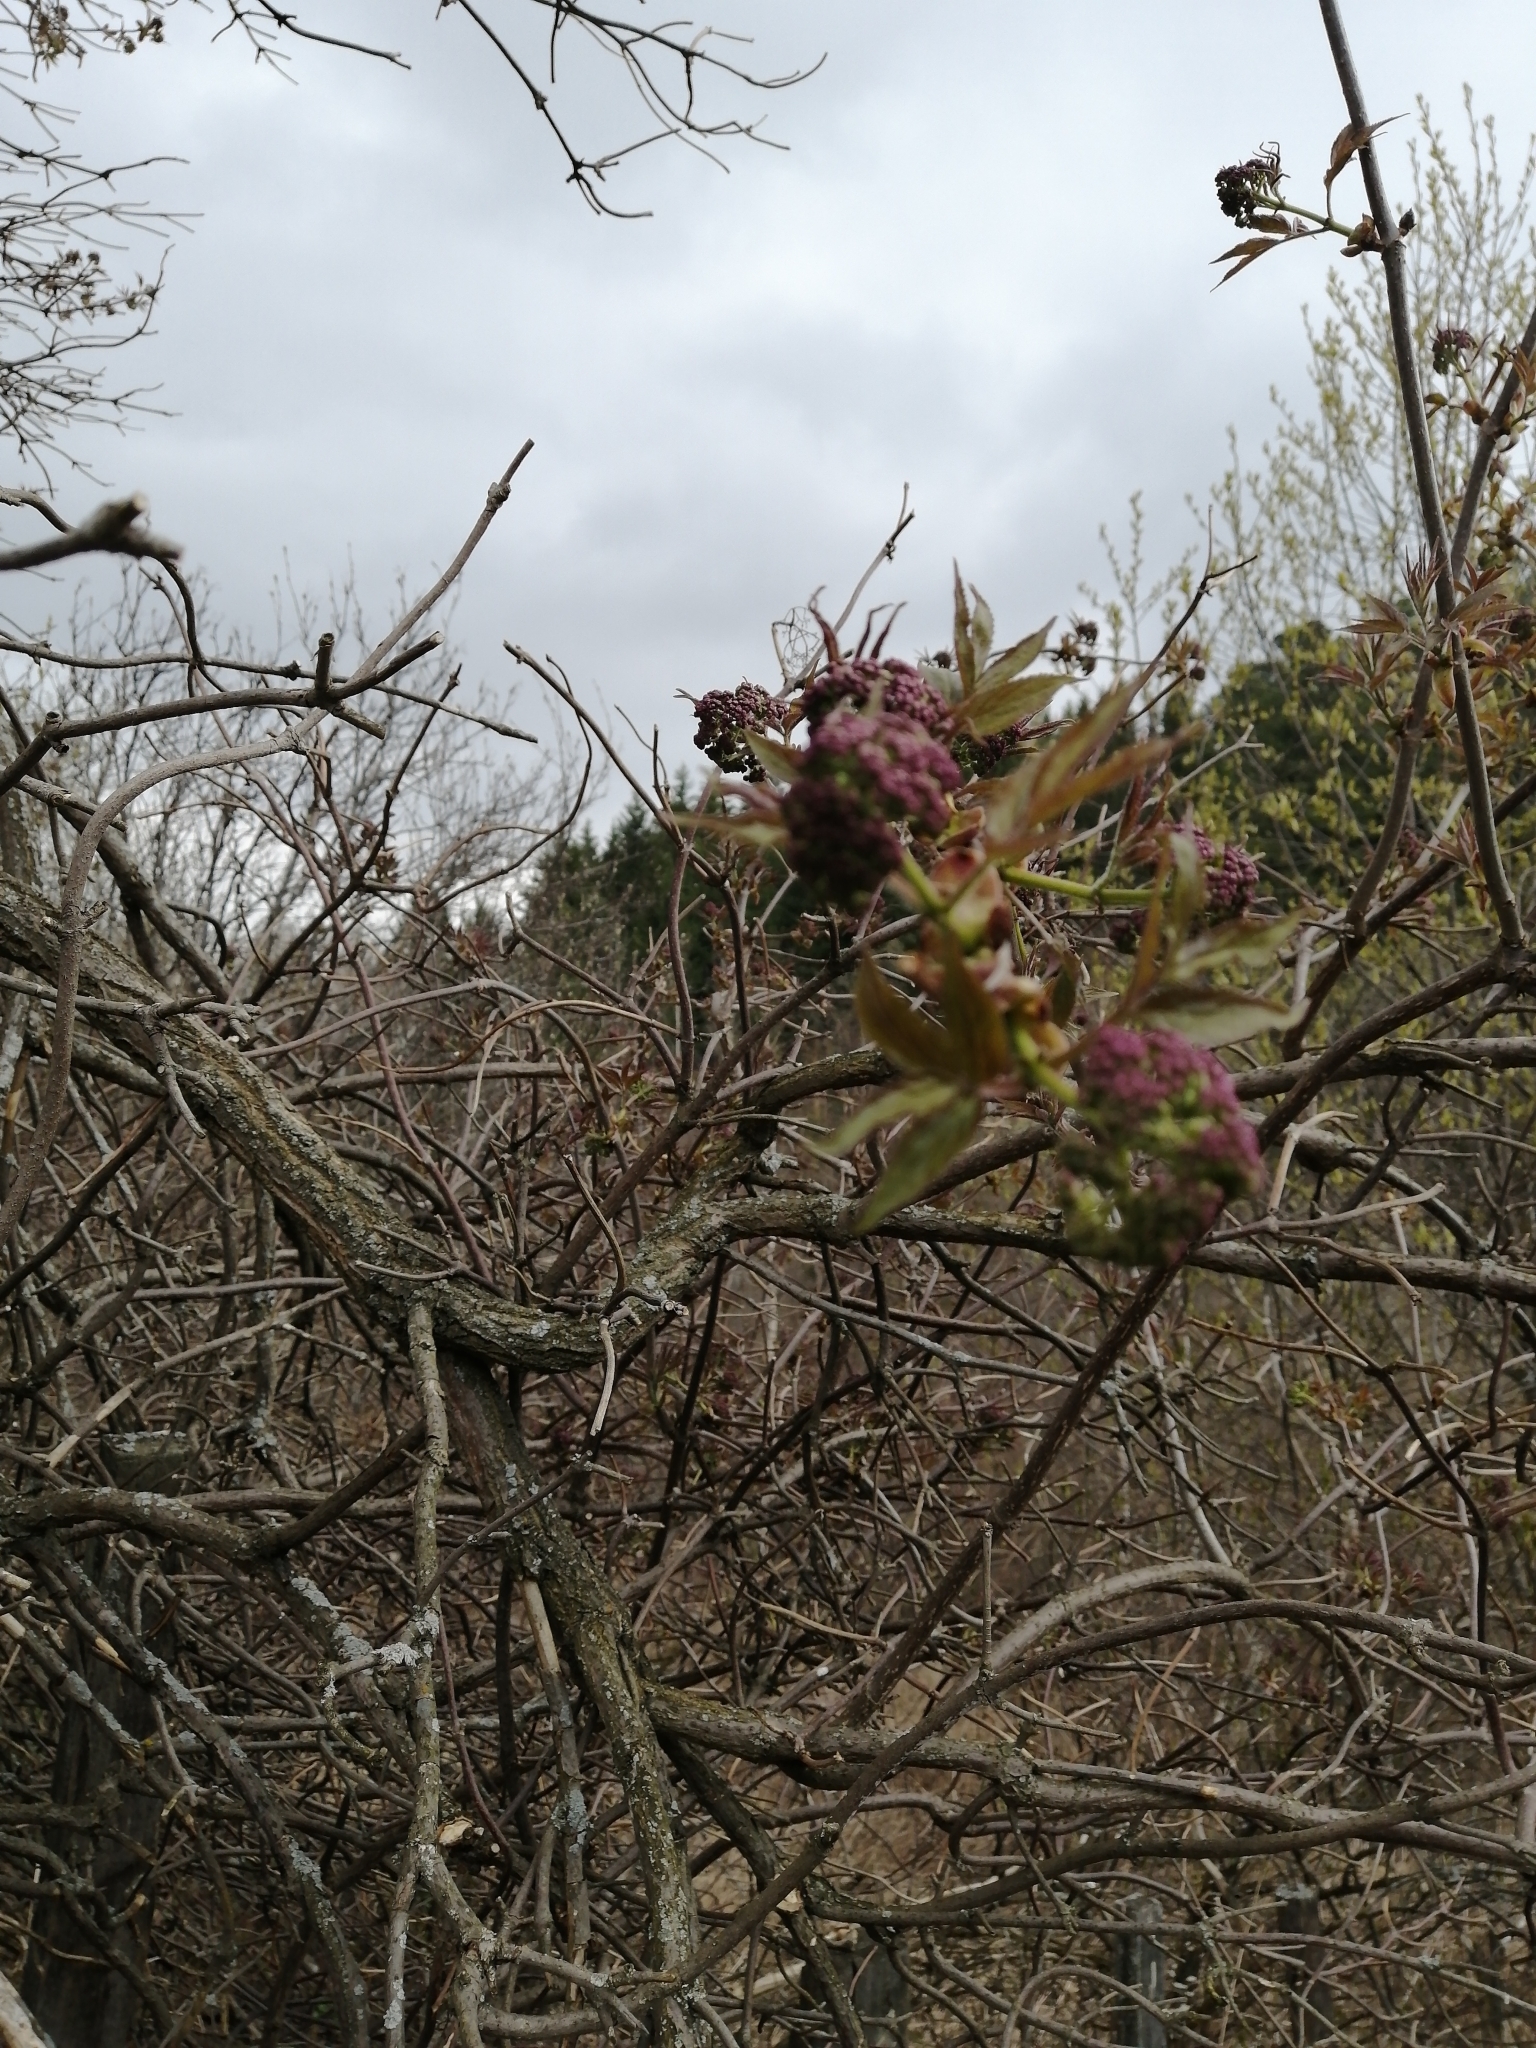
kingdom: Plantae
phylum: Tracheophyta
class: Magnoliopsida
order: Dipsacales
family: Viburnaceae
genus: Sambucus
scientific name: Sambucus sibirica
